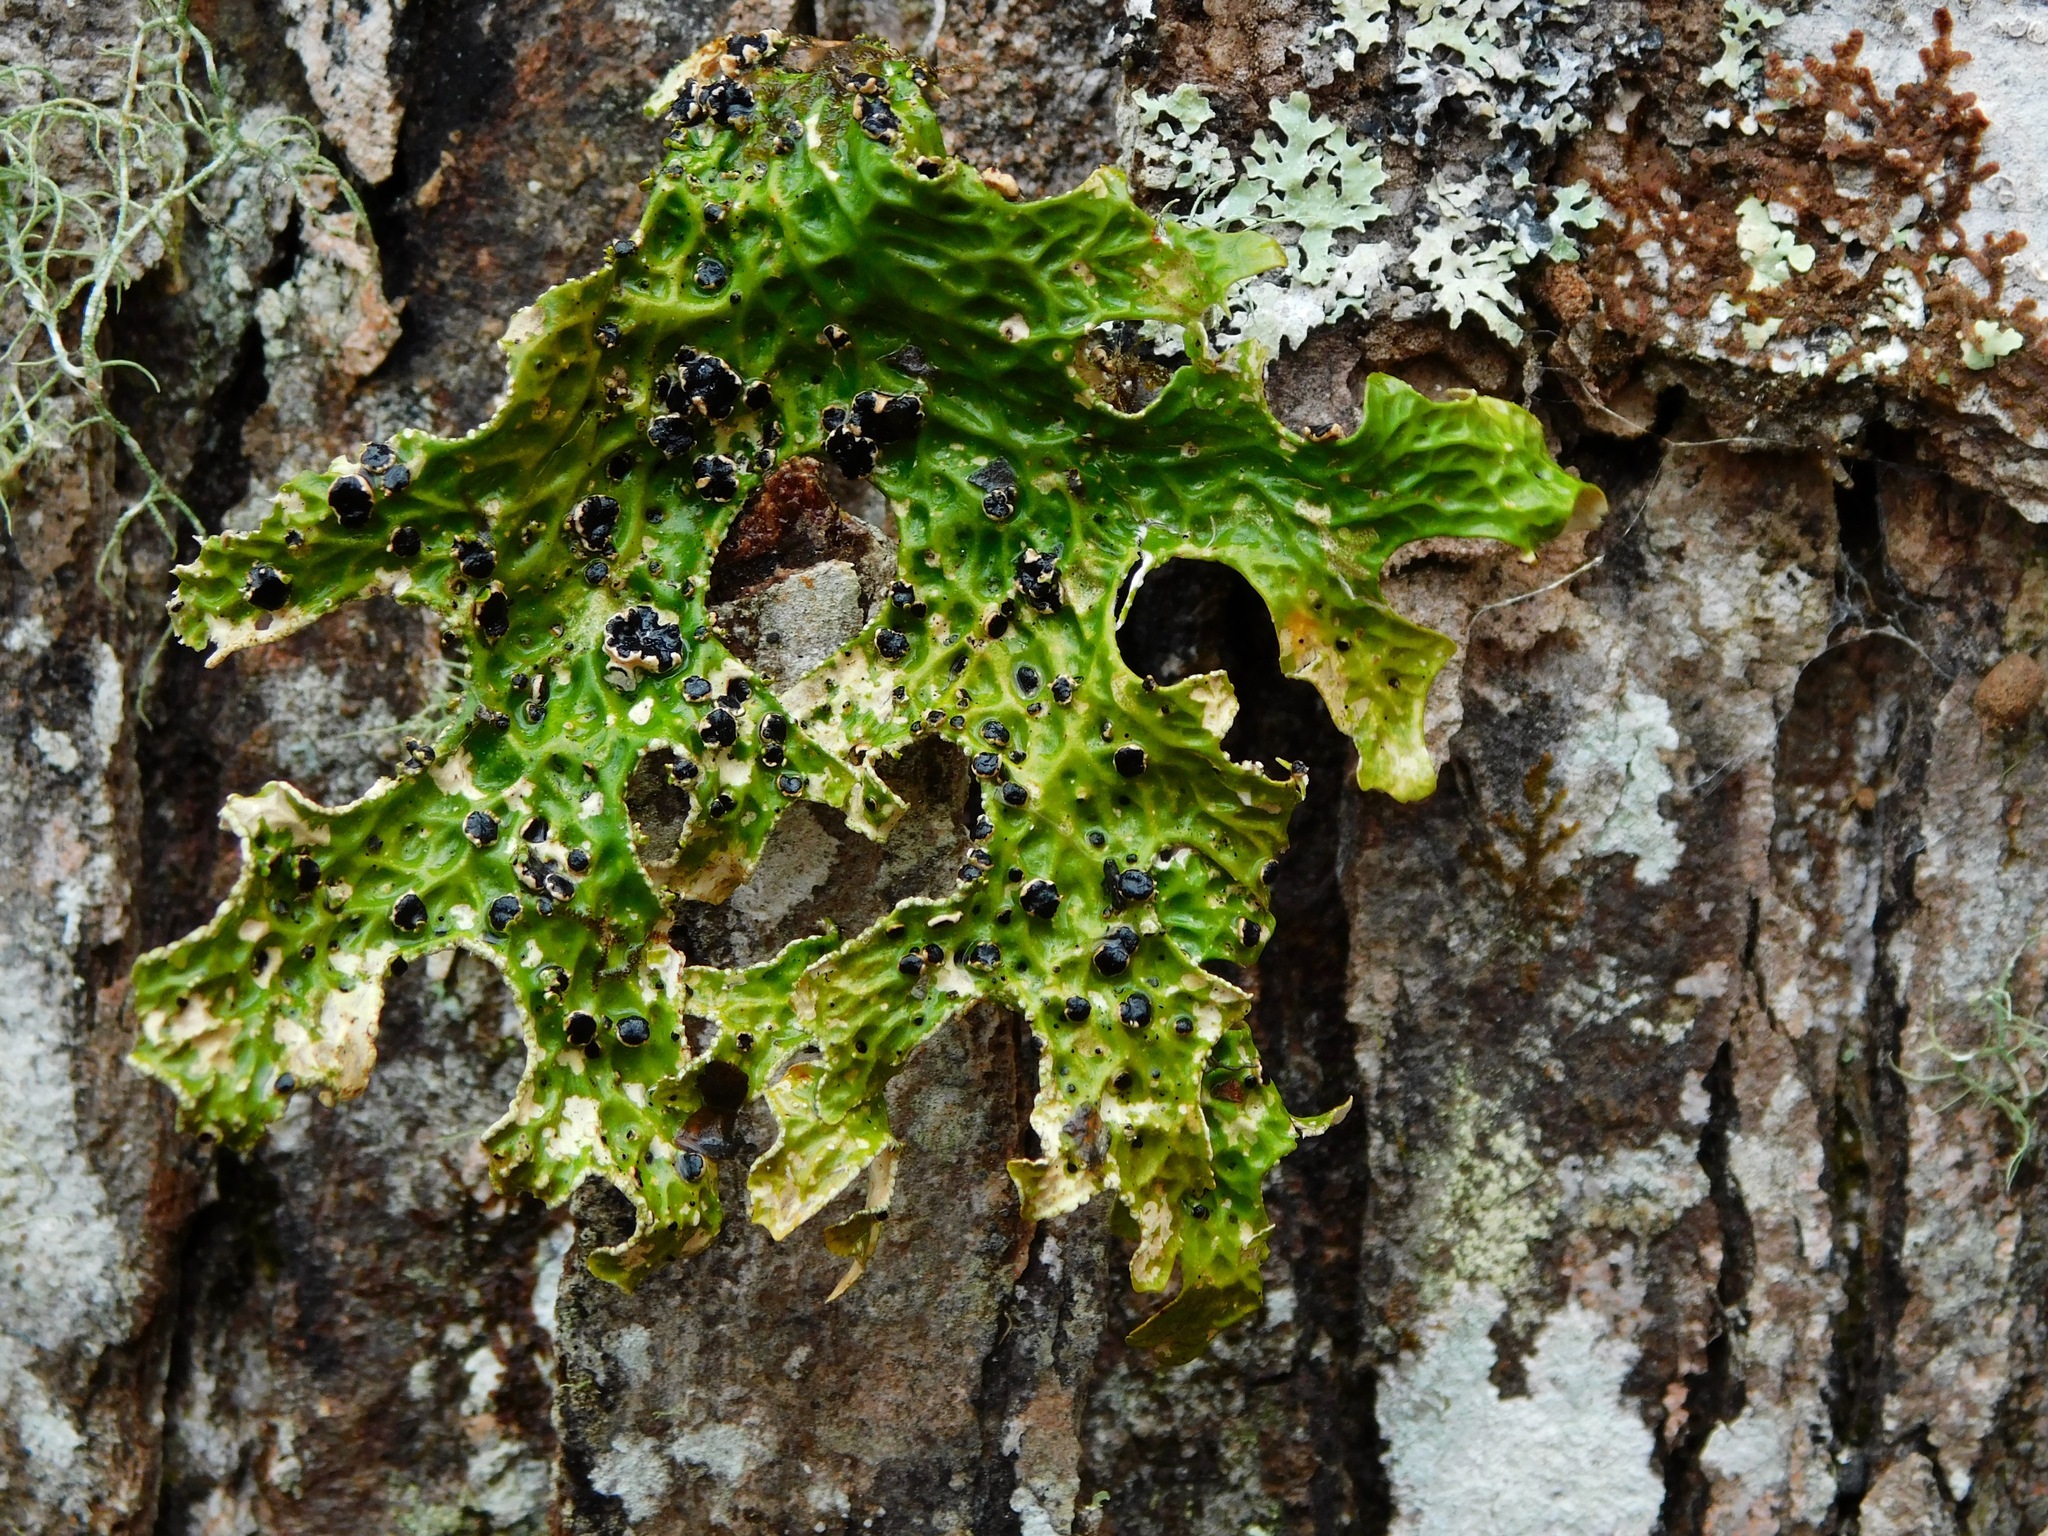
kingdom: Fungi
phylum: Ascomycota
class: Arthoniomycetes
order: Arthoniales
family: Lecanographaceae
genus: Plectocarpon
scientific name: Plectocarpon lichenum
